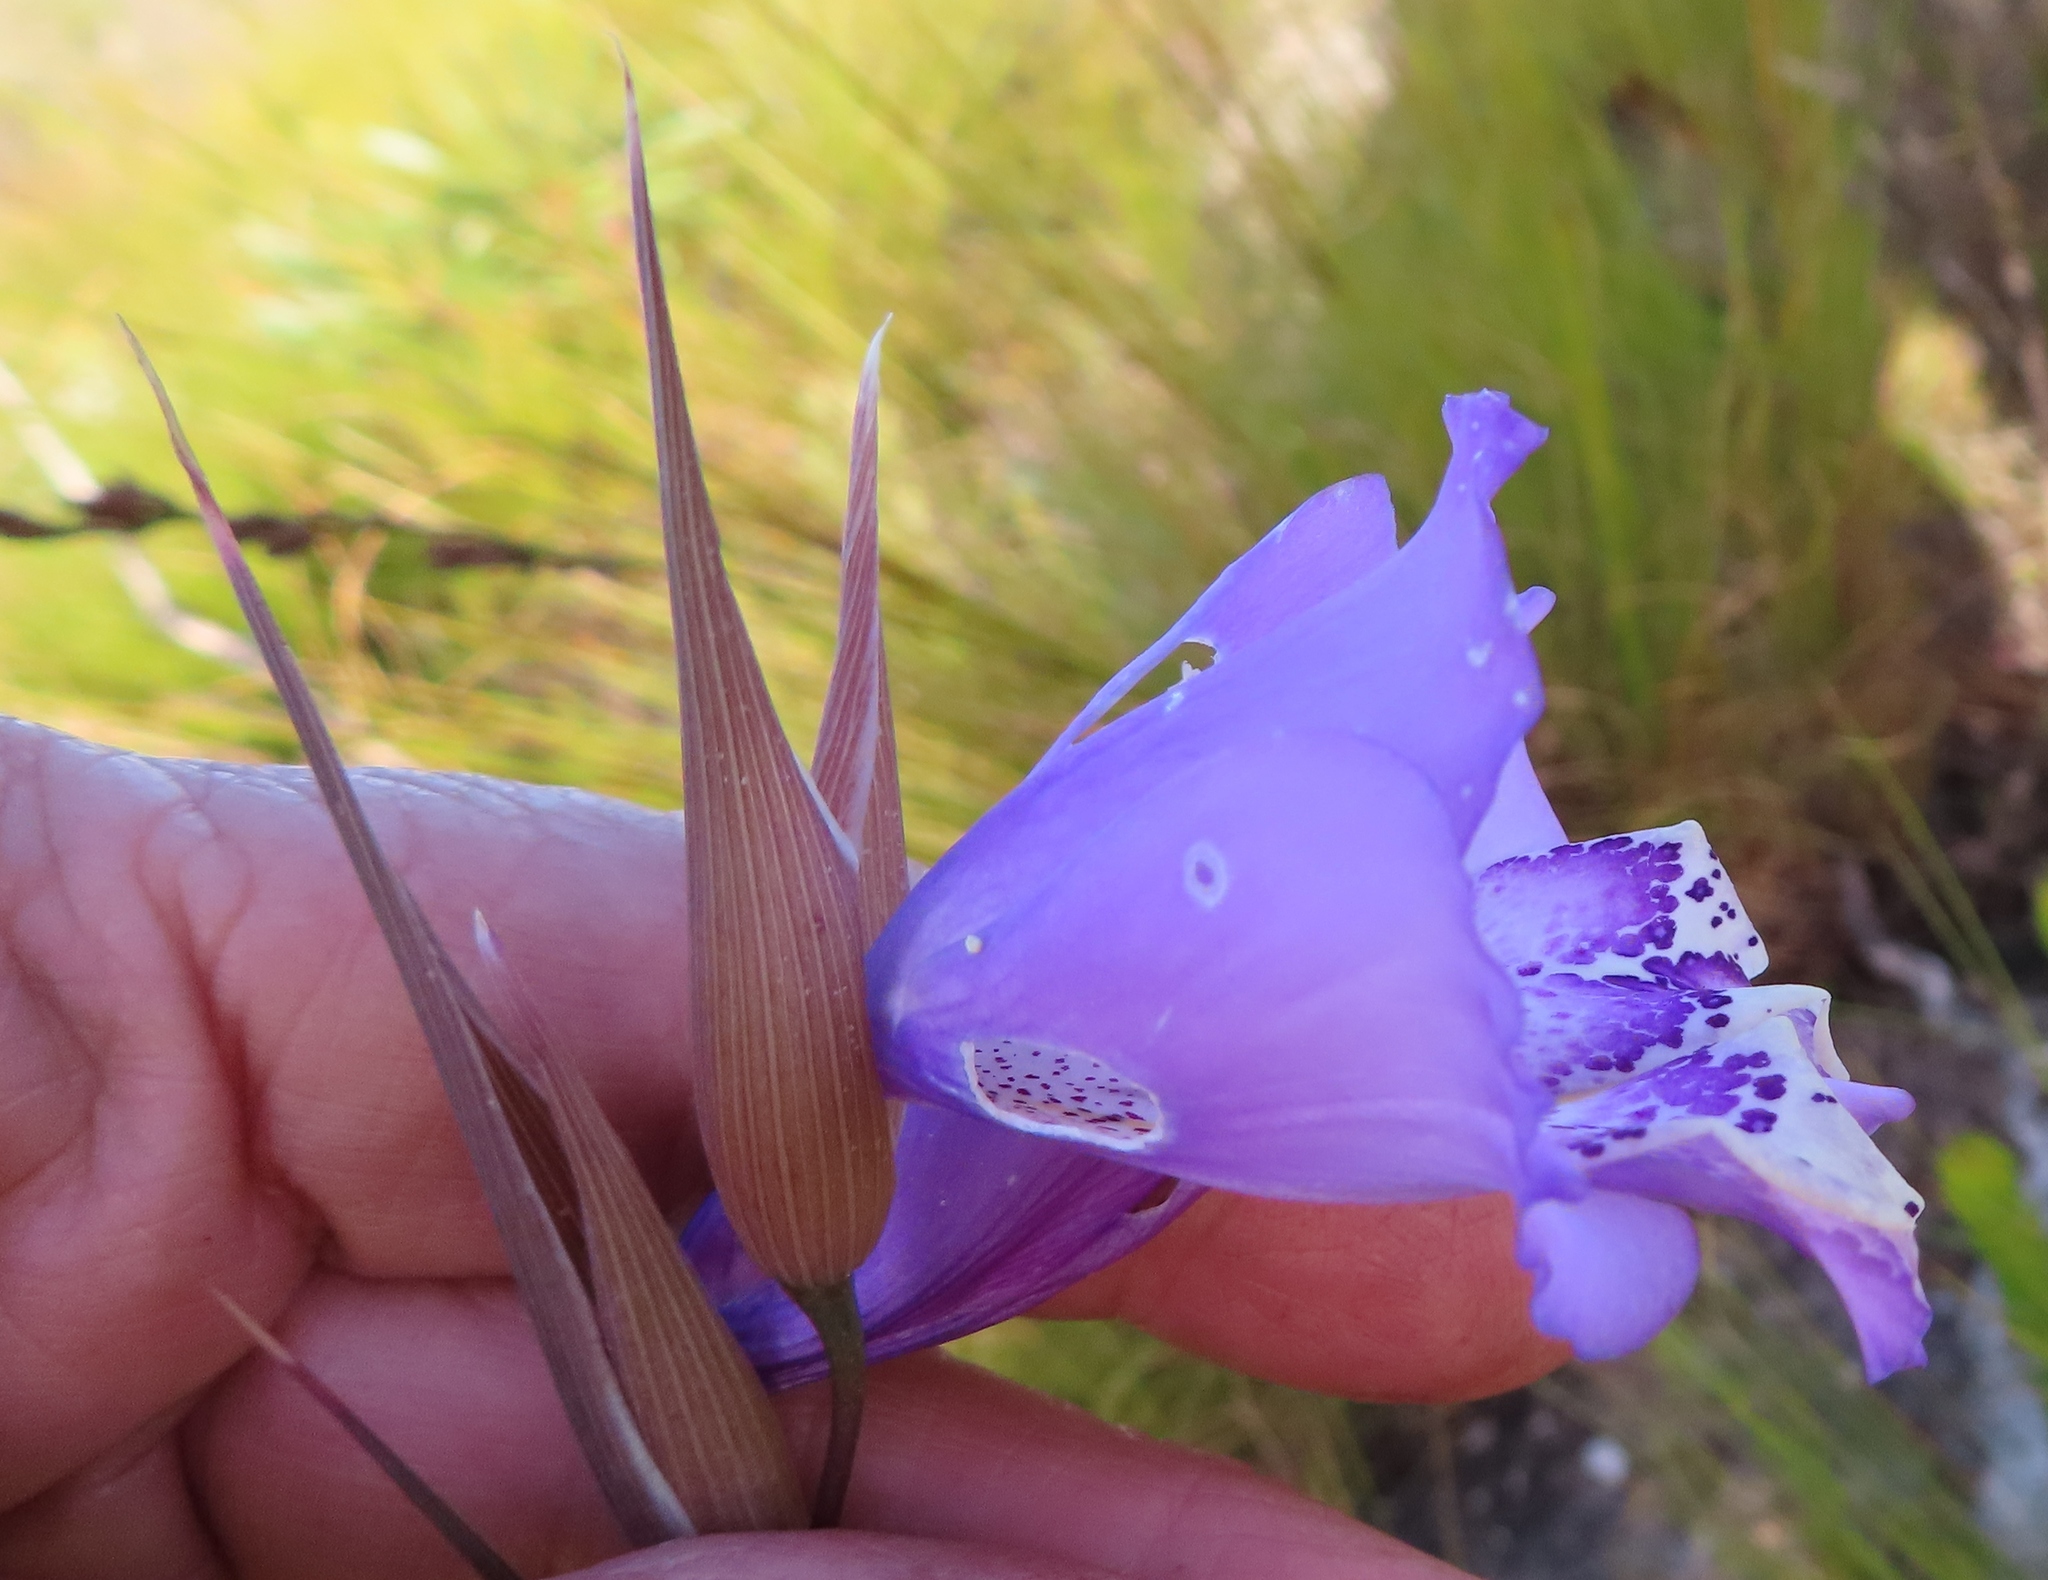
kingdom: Plantae
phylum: Tracheophyta
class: Liliopsida
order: Asparagales
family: Iridaceae
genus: Gladiolus
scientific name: Gladiolus bullatus
